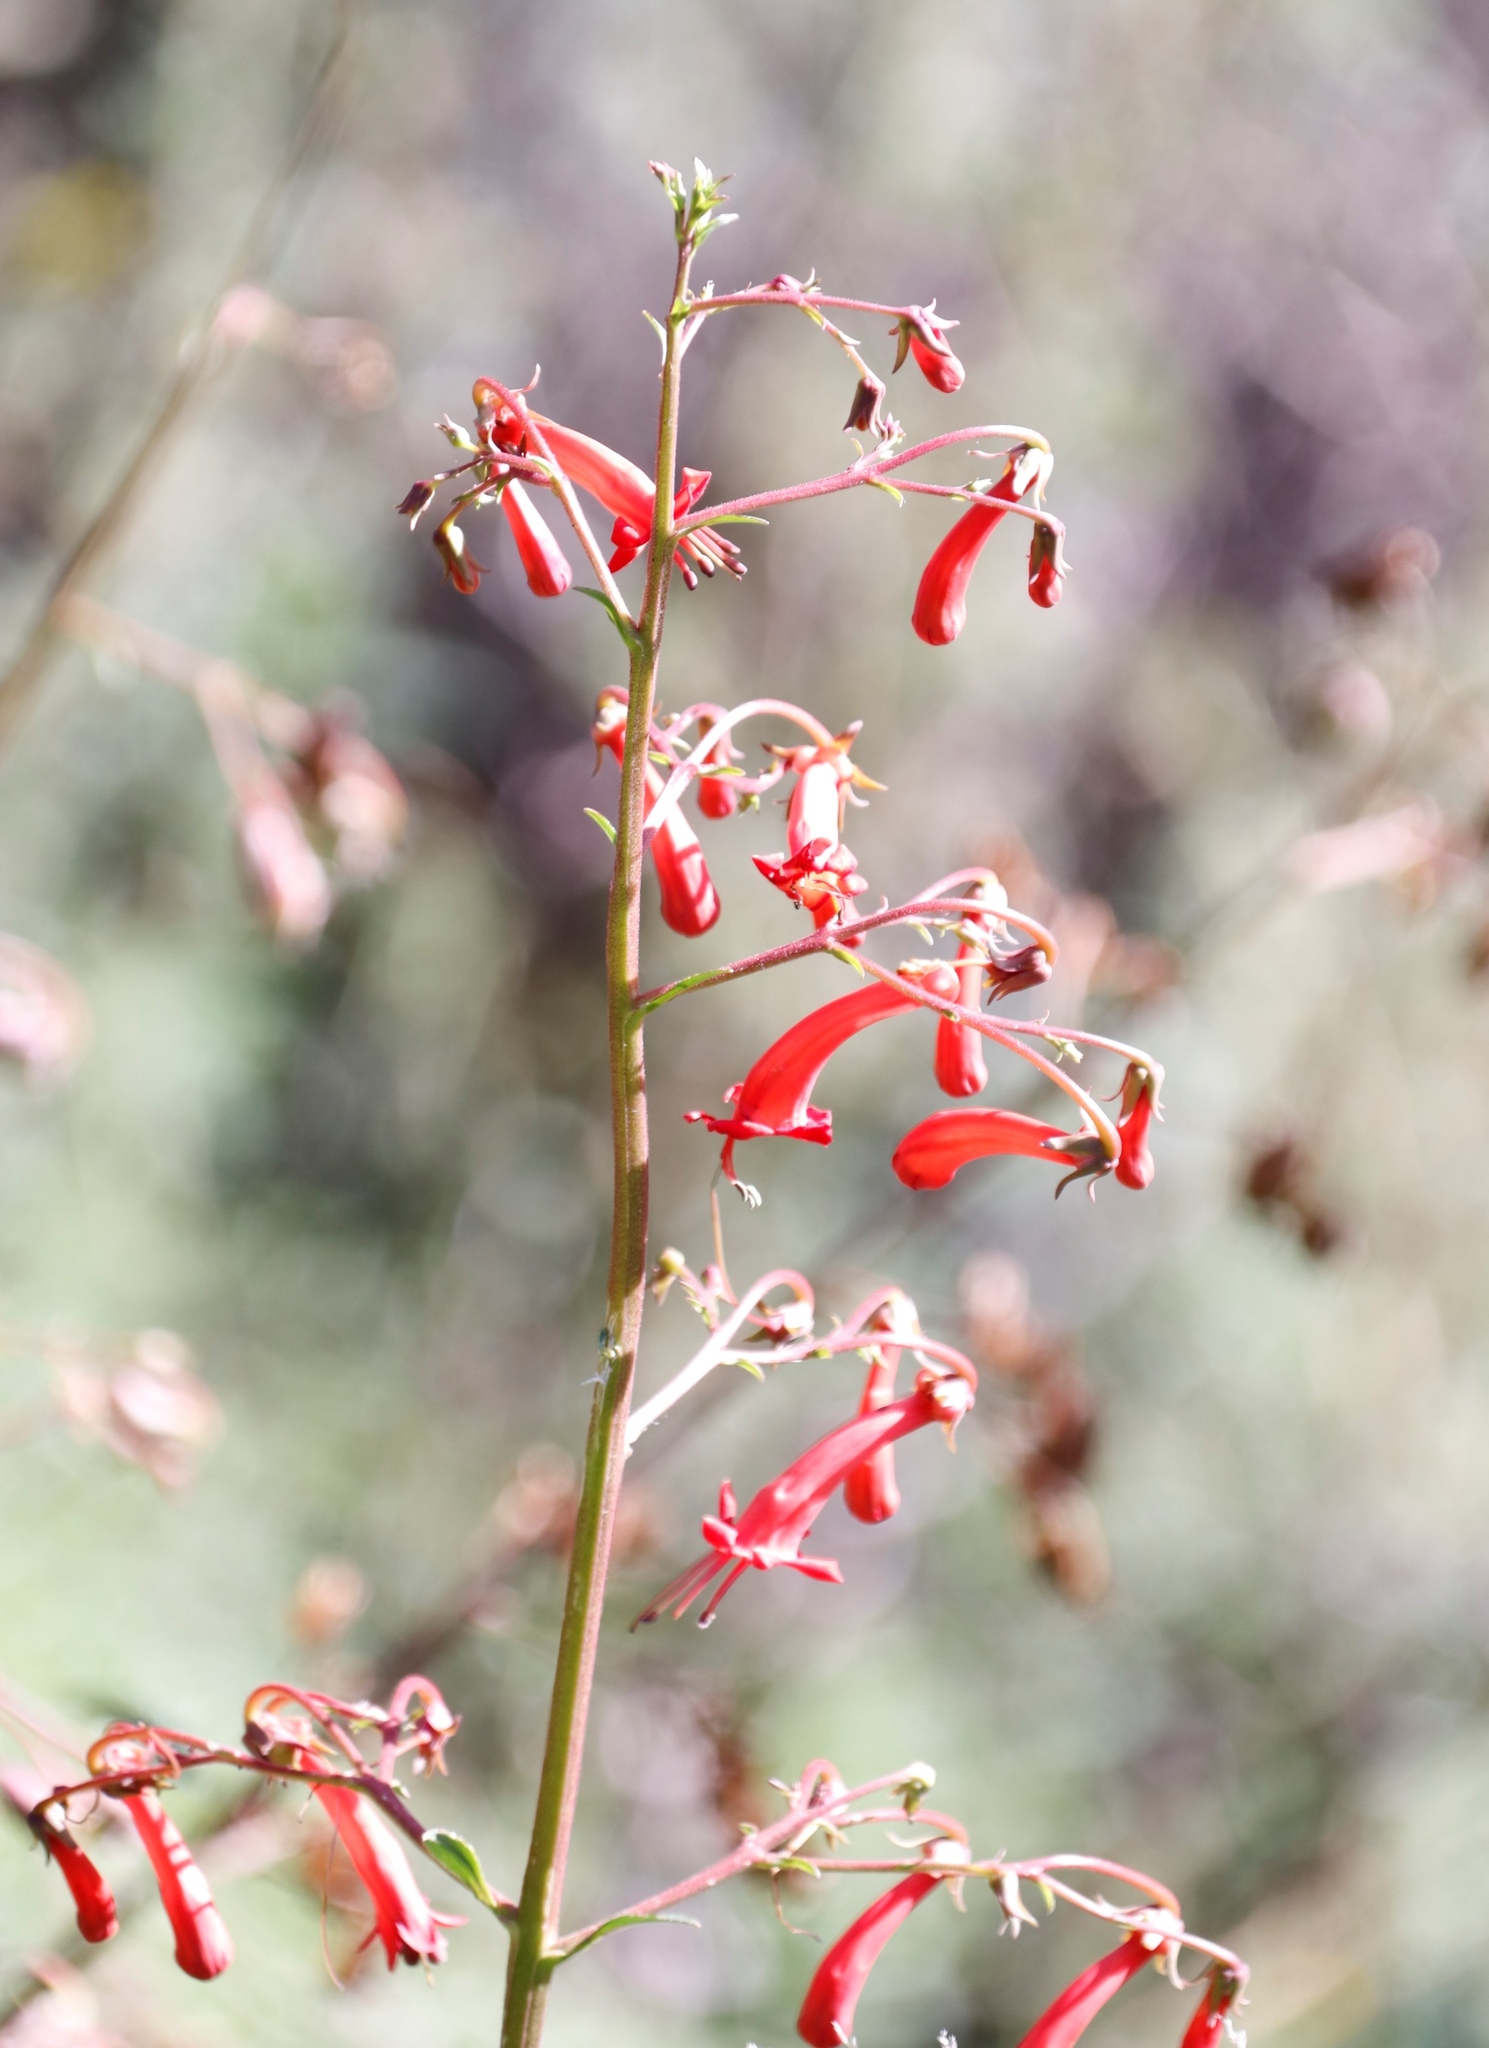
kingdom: Plantae
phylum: Tracheophyta
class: Magnoliopsida
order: Lamiales
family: Scrophulariaceae
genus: Phygelius
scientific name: Phygelius capensis
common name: Cape figwort
